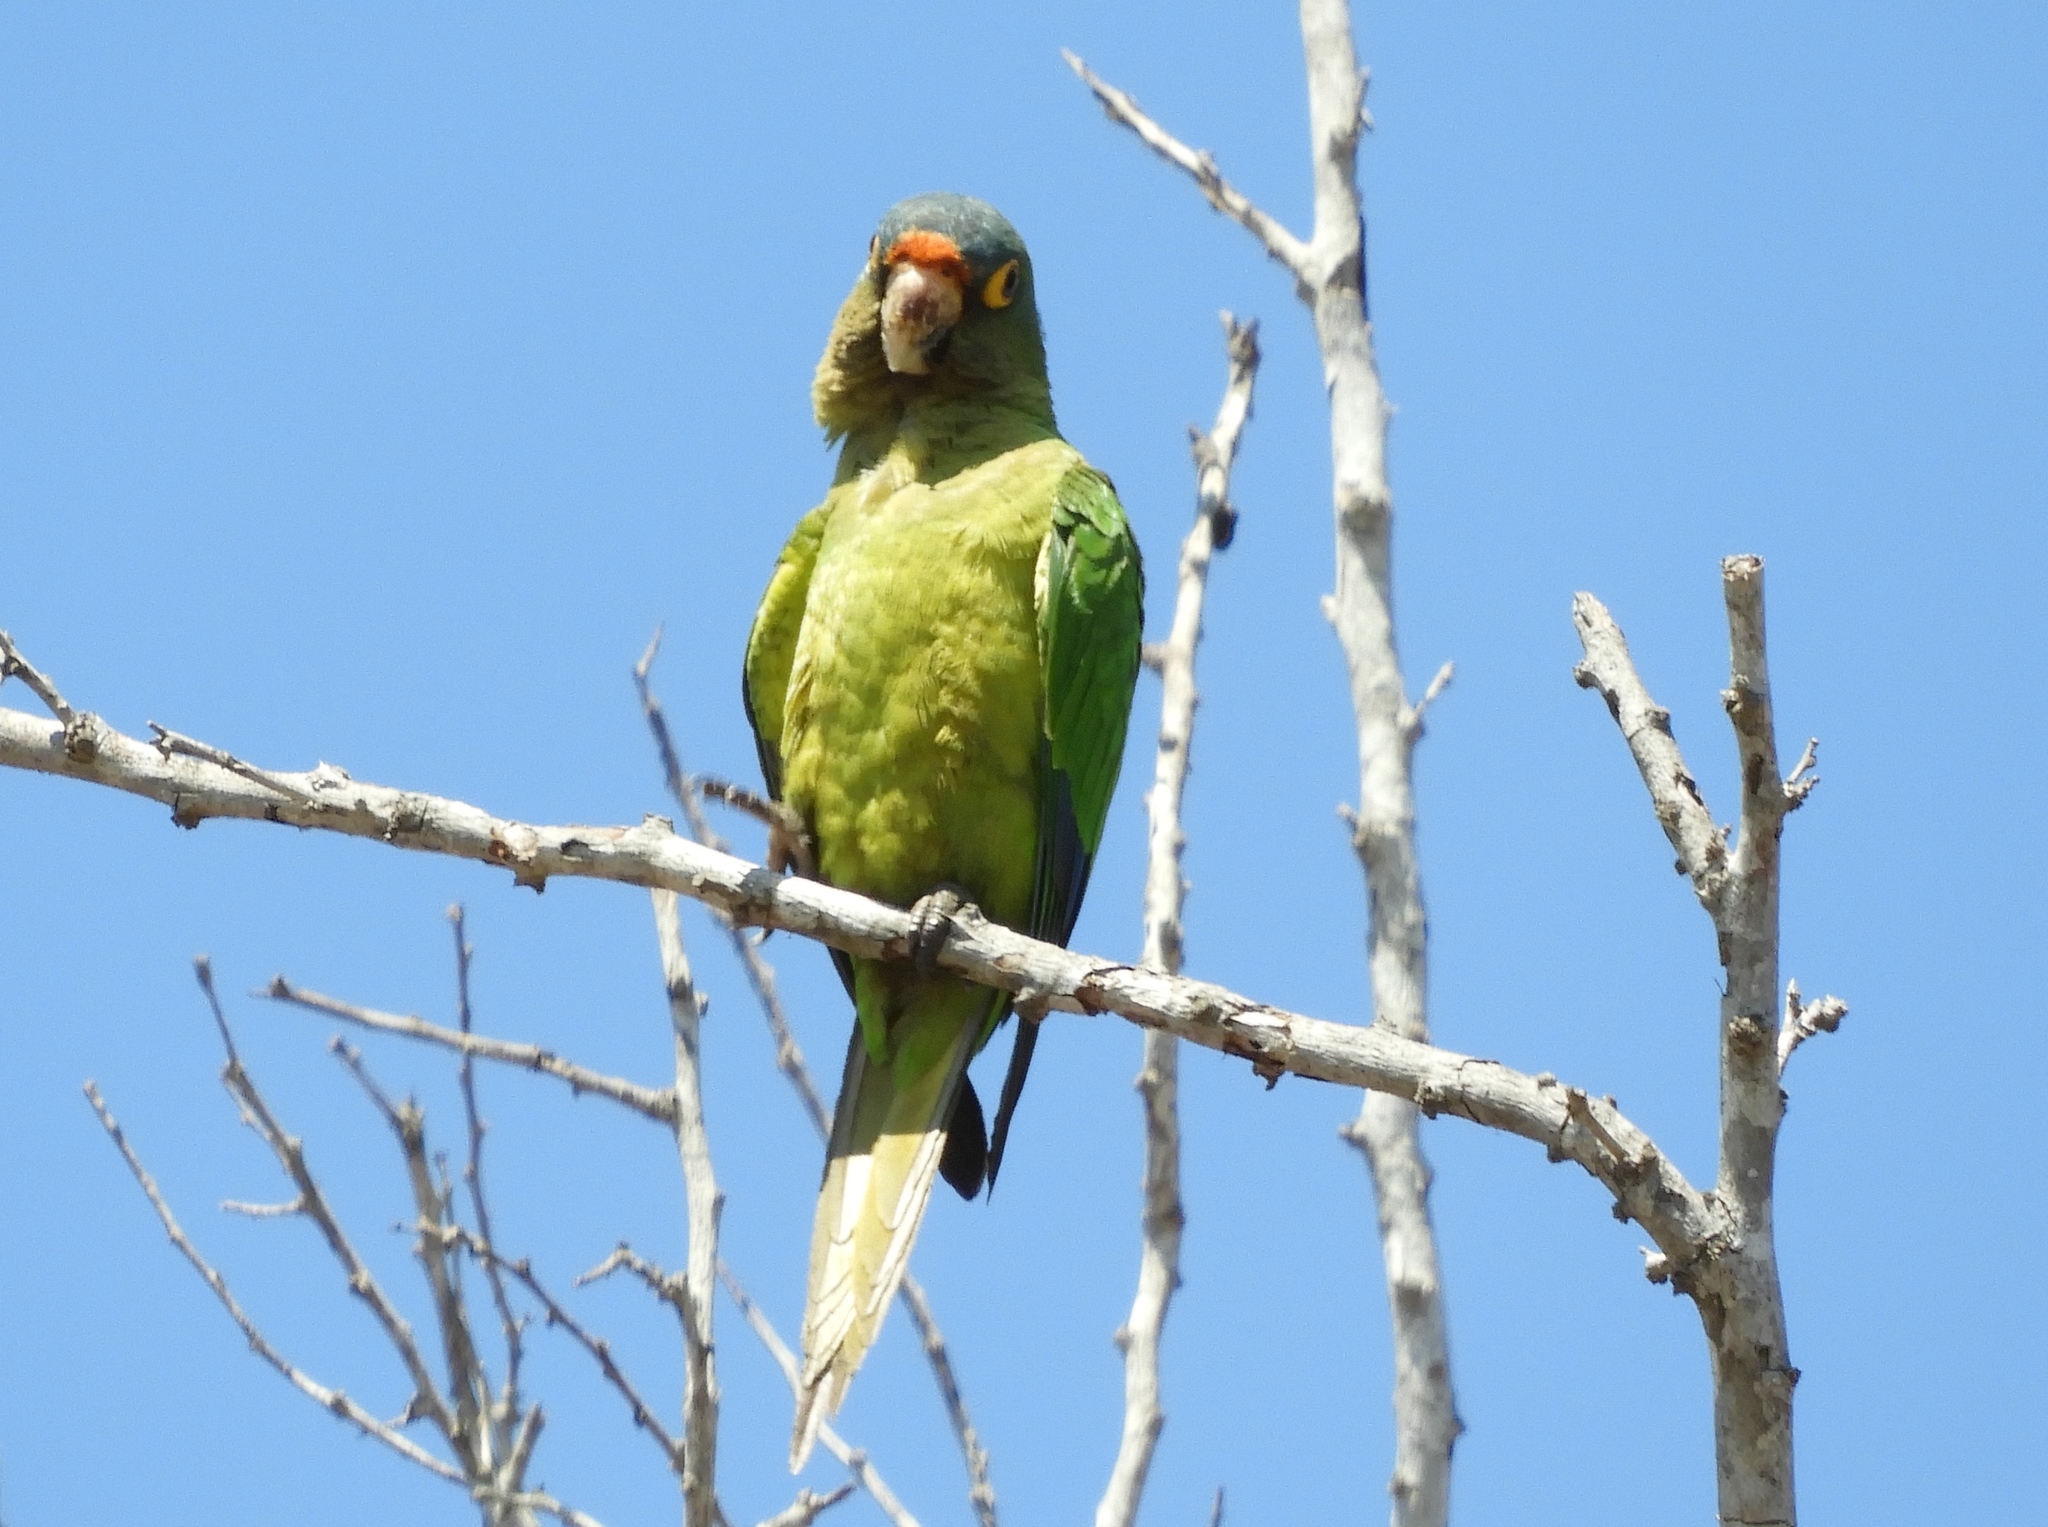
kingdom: Animalia
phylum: Chordata
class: Aves
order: Psittaciformes
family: Psittacidae
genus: Aratinga
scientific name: Aratinga canicularis
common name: Orange-fronted parakeet
